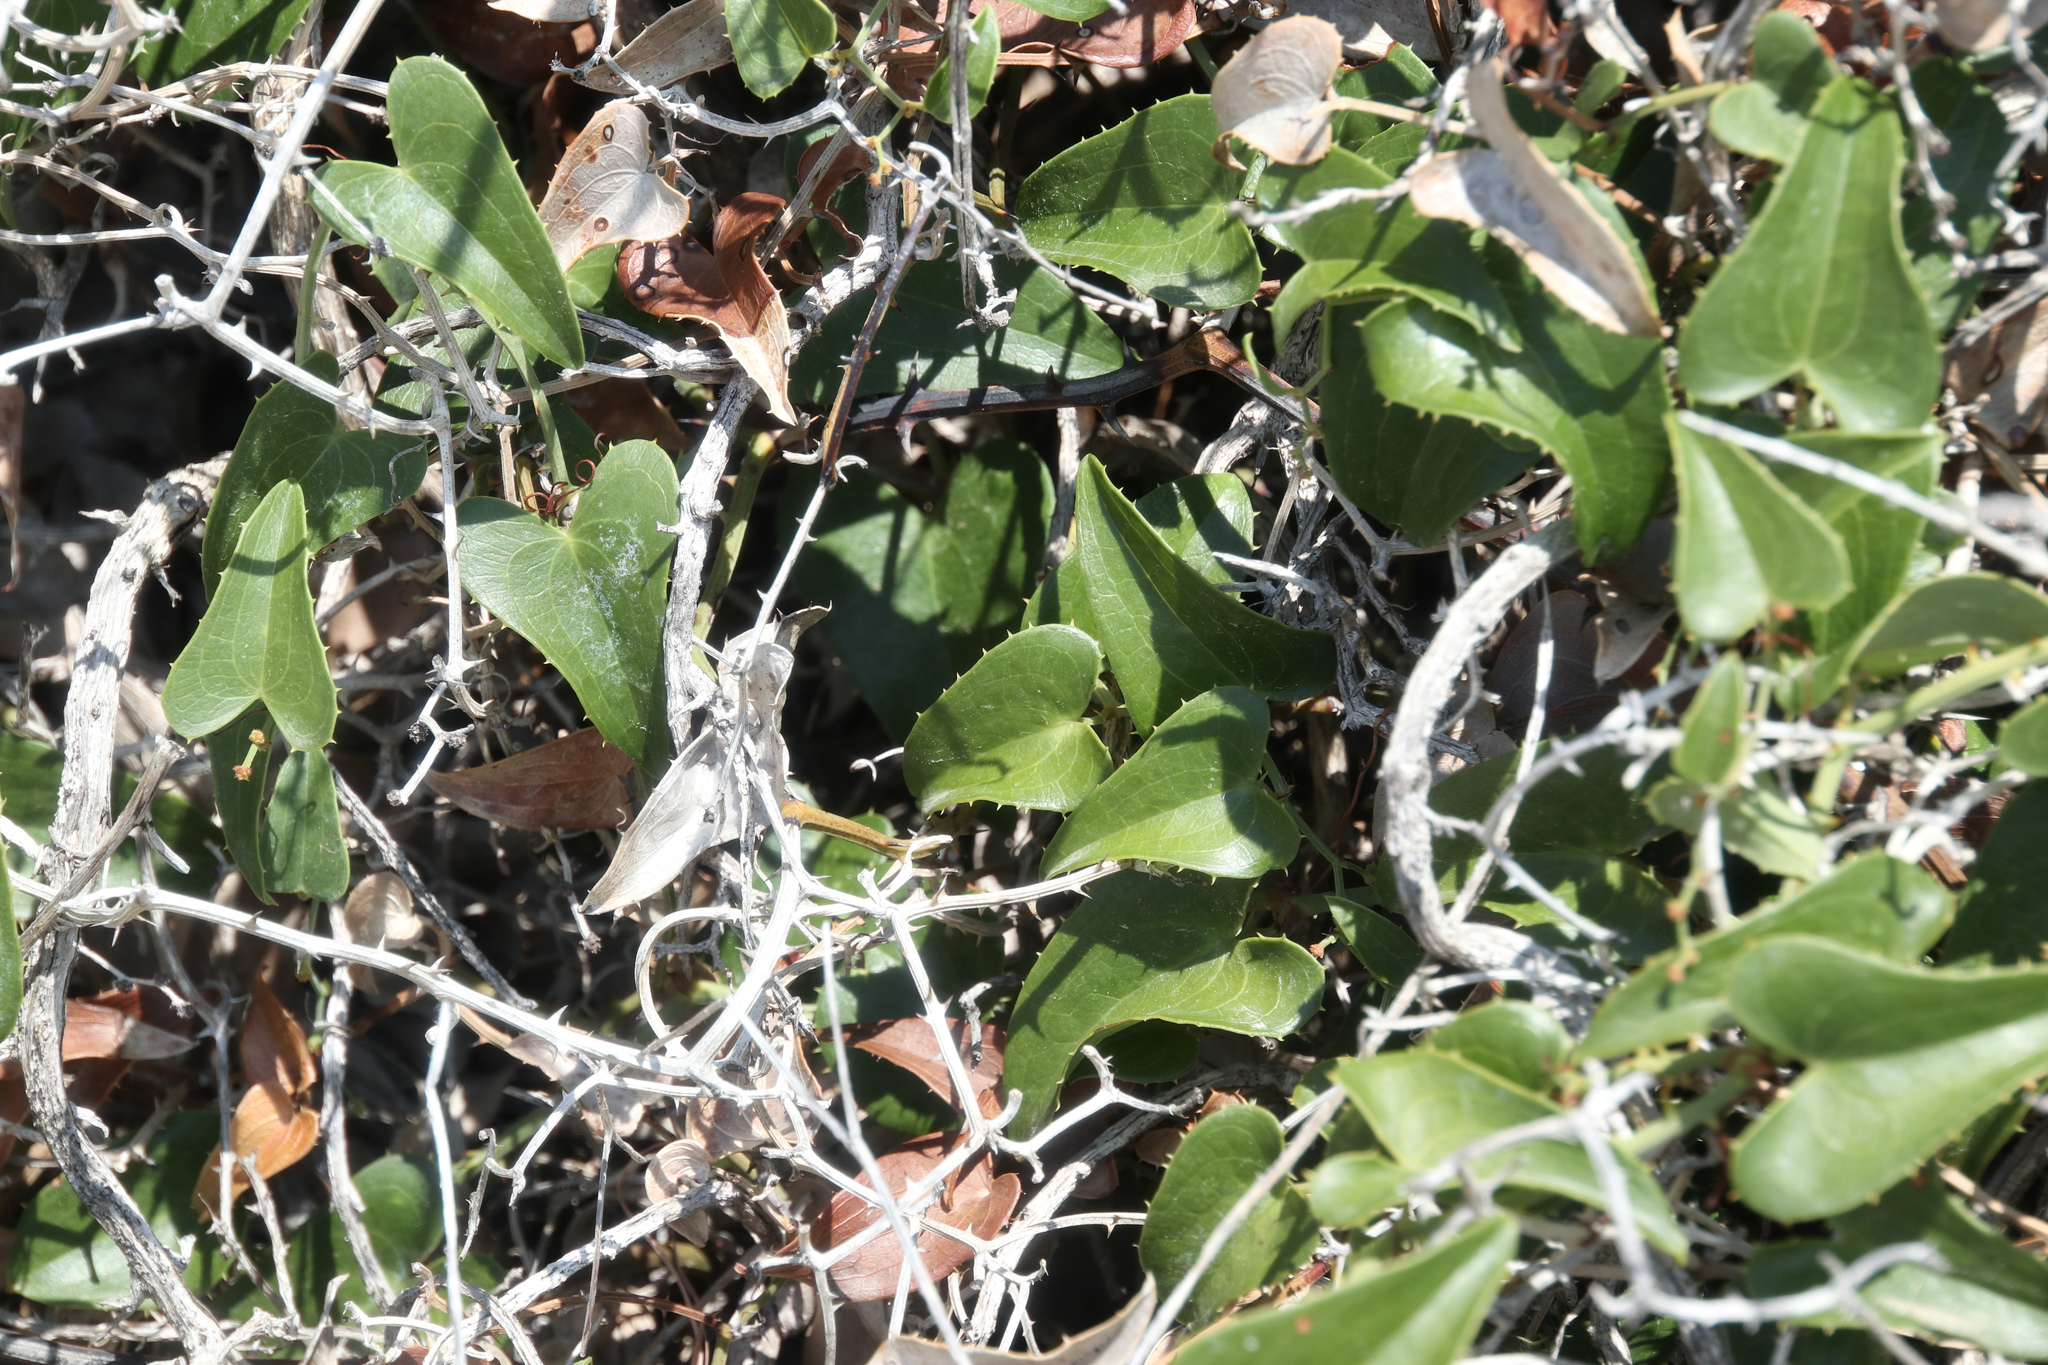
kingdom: Plantae
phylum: Tracheophyta
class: Liliopsida
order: Liliales
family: Smilacaceae
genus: Smilax
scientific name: Smilax aspera
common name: Common smilax
